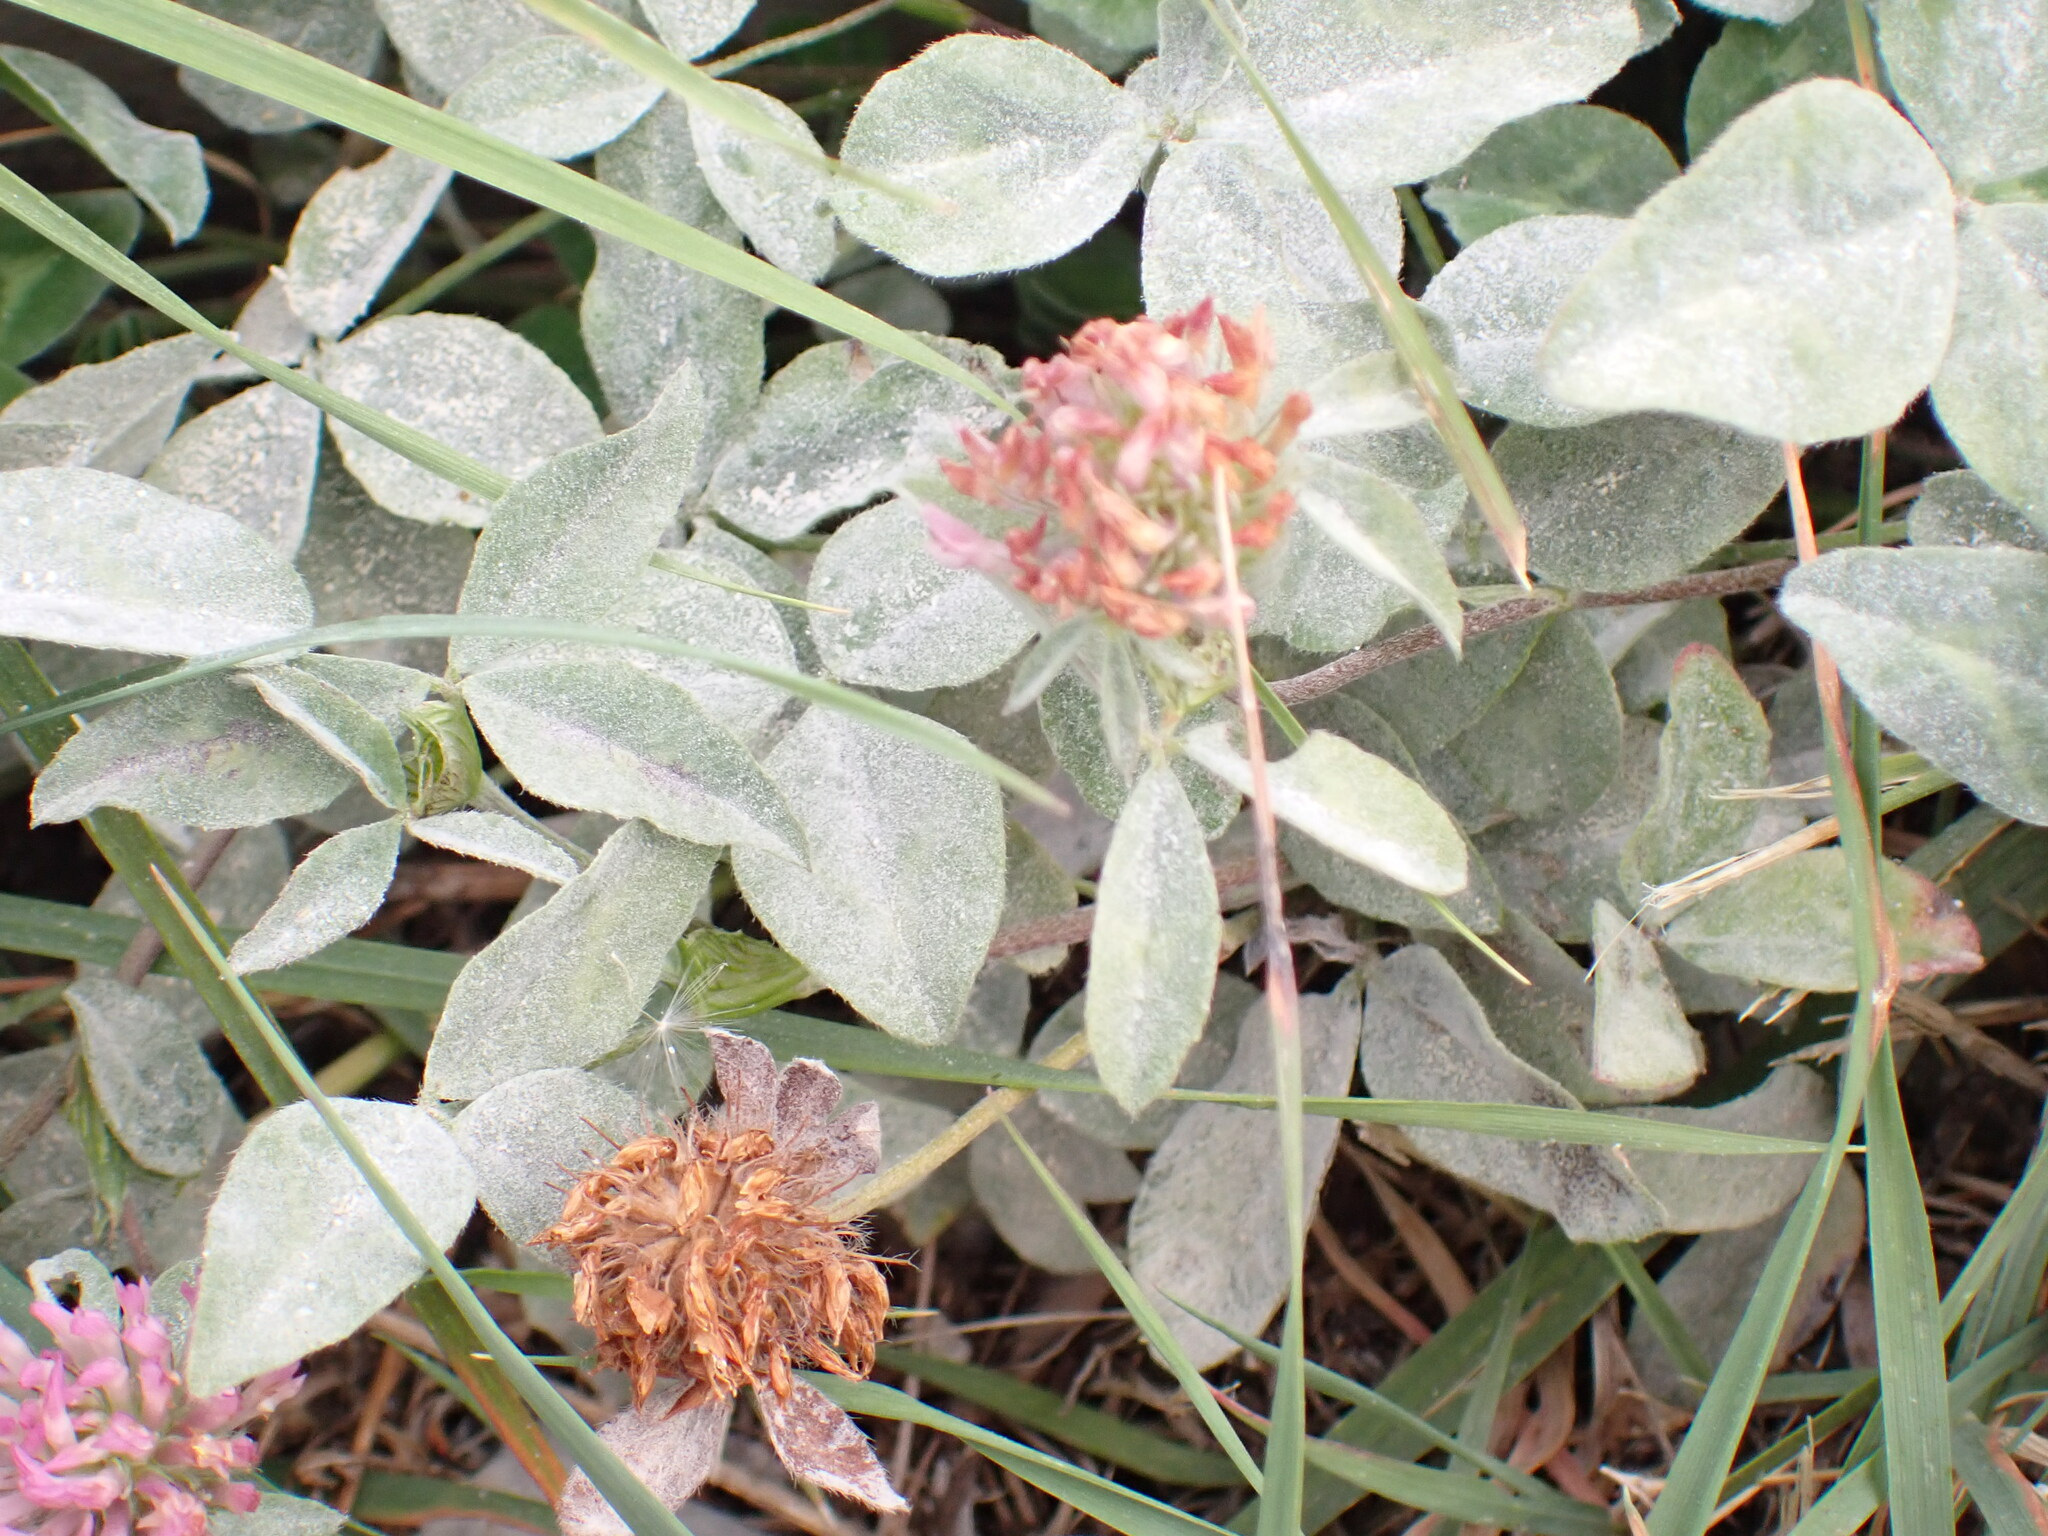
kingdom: Plantae
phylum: Tracheophyta
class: Magnoliopsida
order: Fabales
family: Fabaceae
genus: Trifolium
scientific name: Trifolium pratense
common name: Red clover
